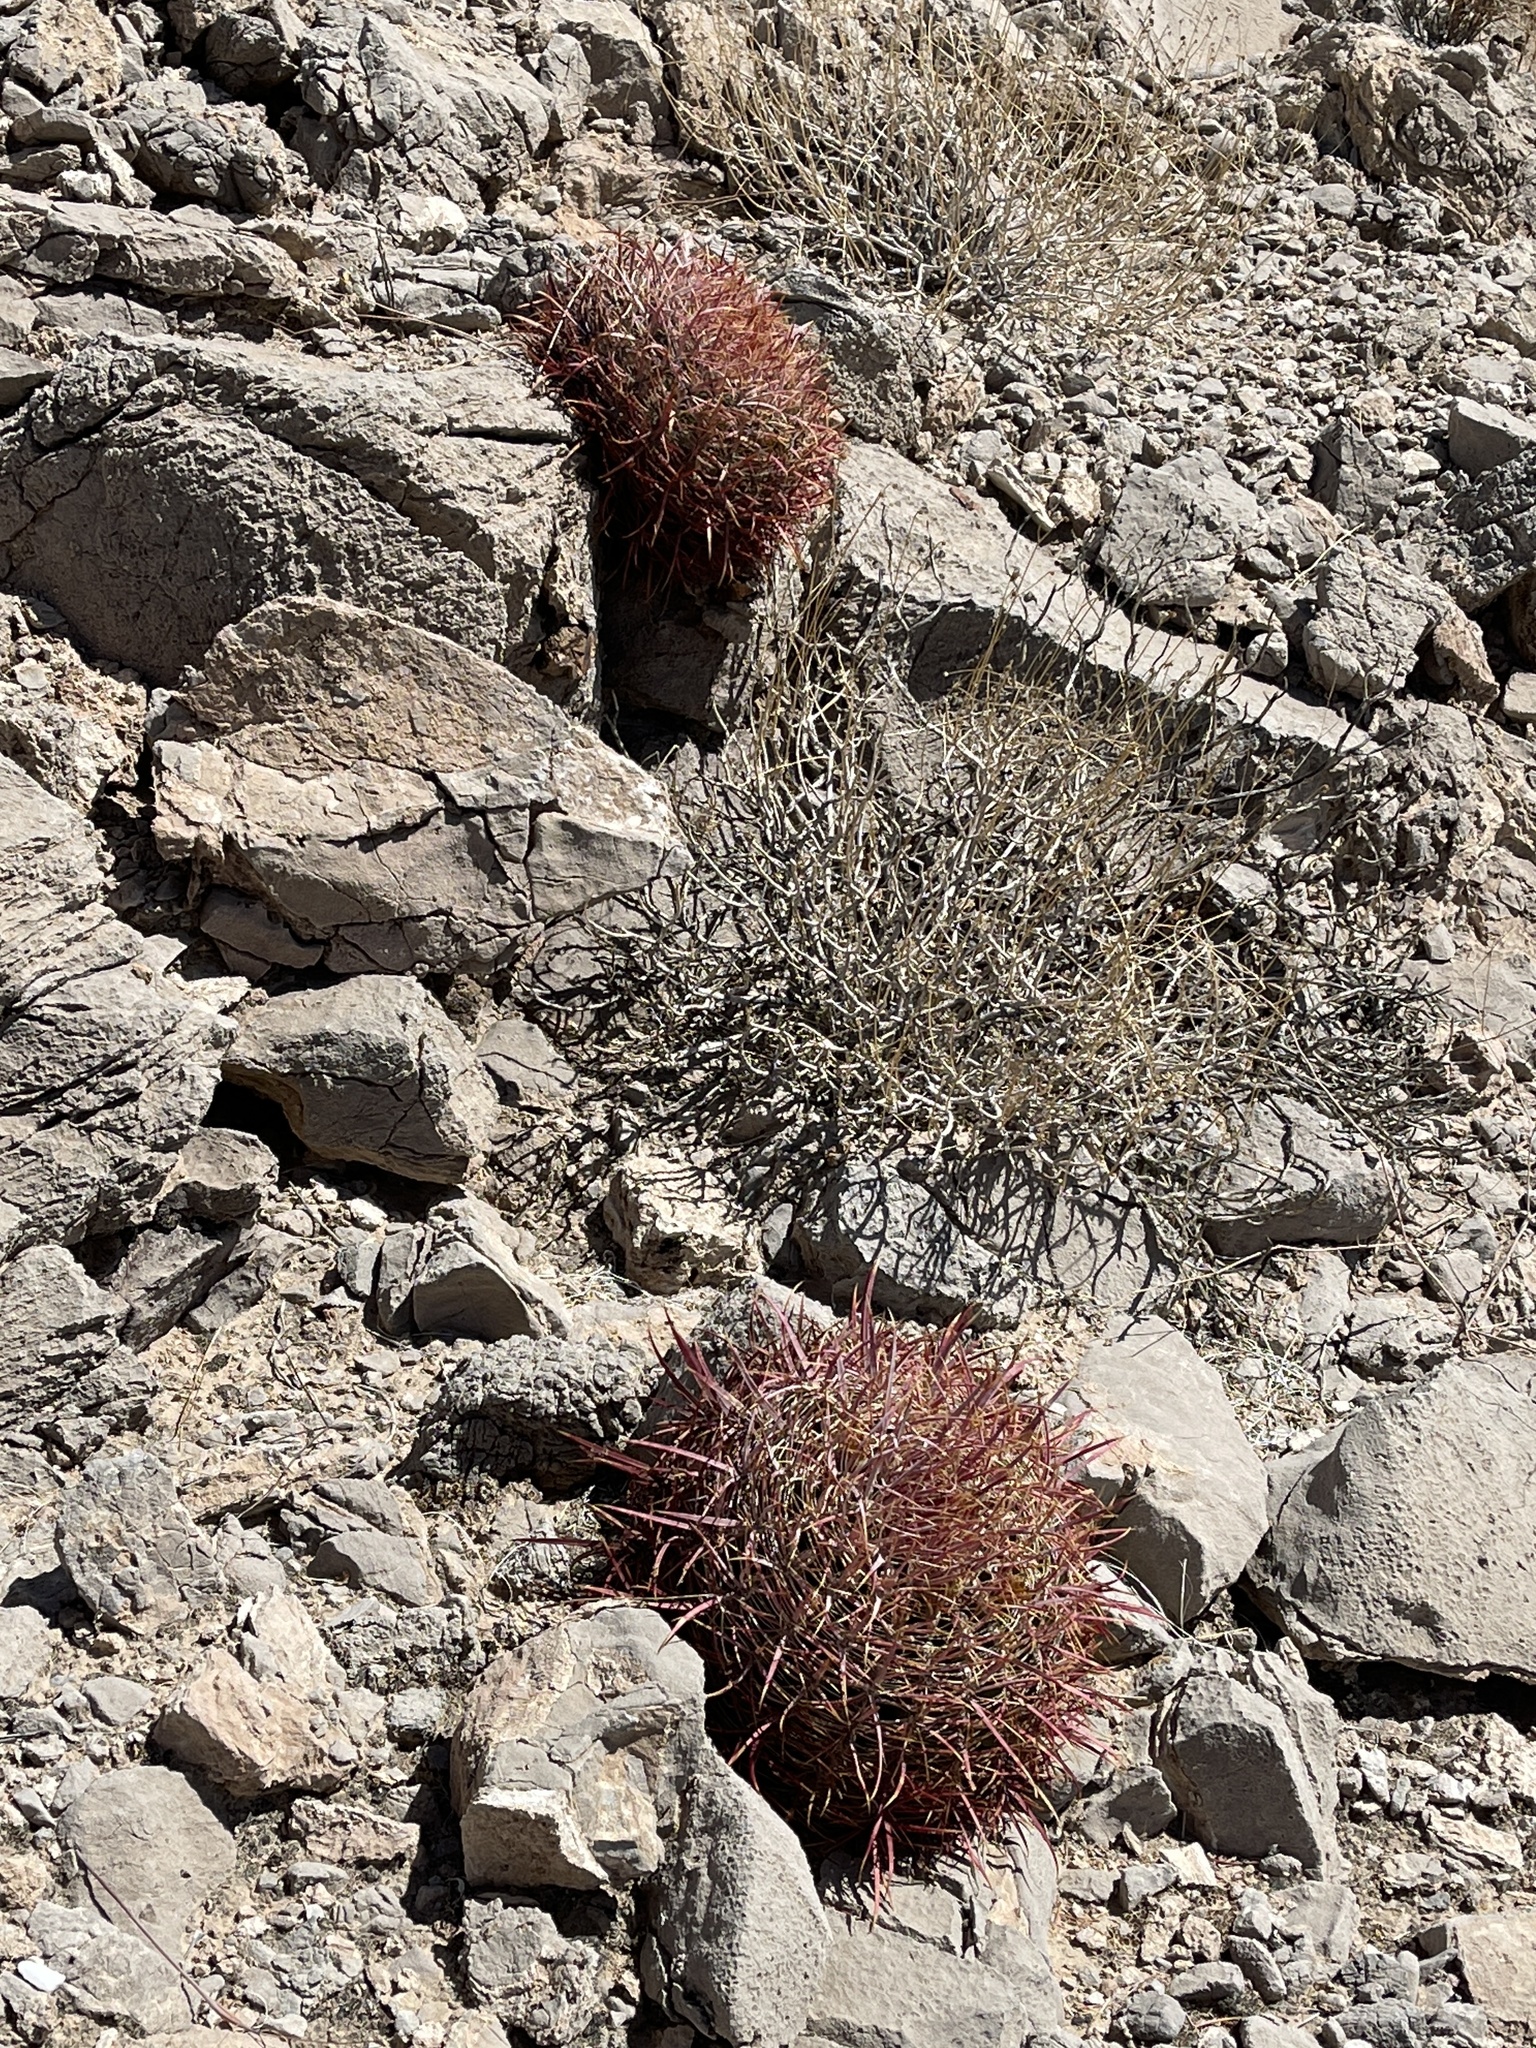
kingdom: Plantae
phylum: Tracheophyta
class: Magnoliopsida
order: Caryophyllales
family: Cactaceae
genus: Ferocactus
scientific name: Ferocactus cylindraceus
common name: California barrel cactus
